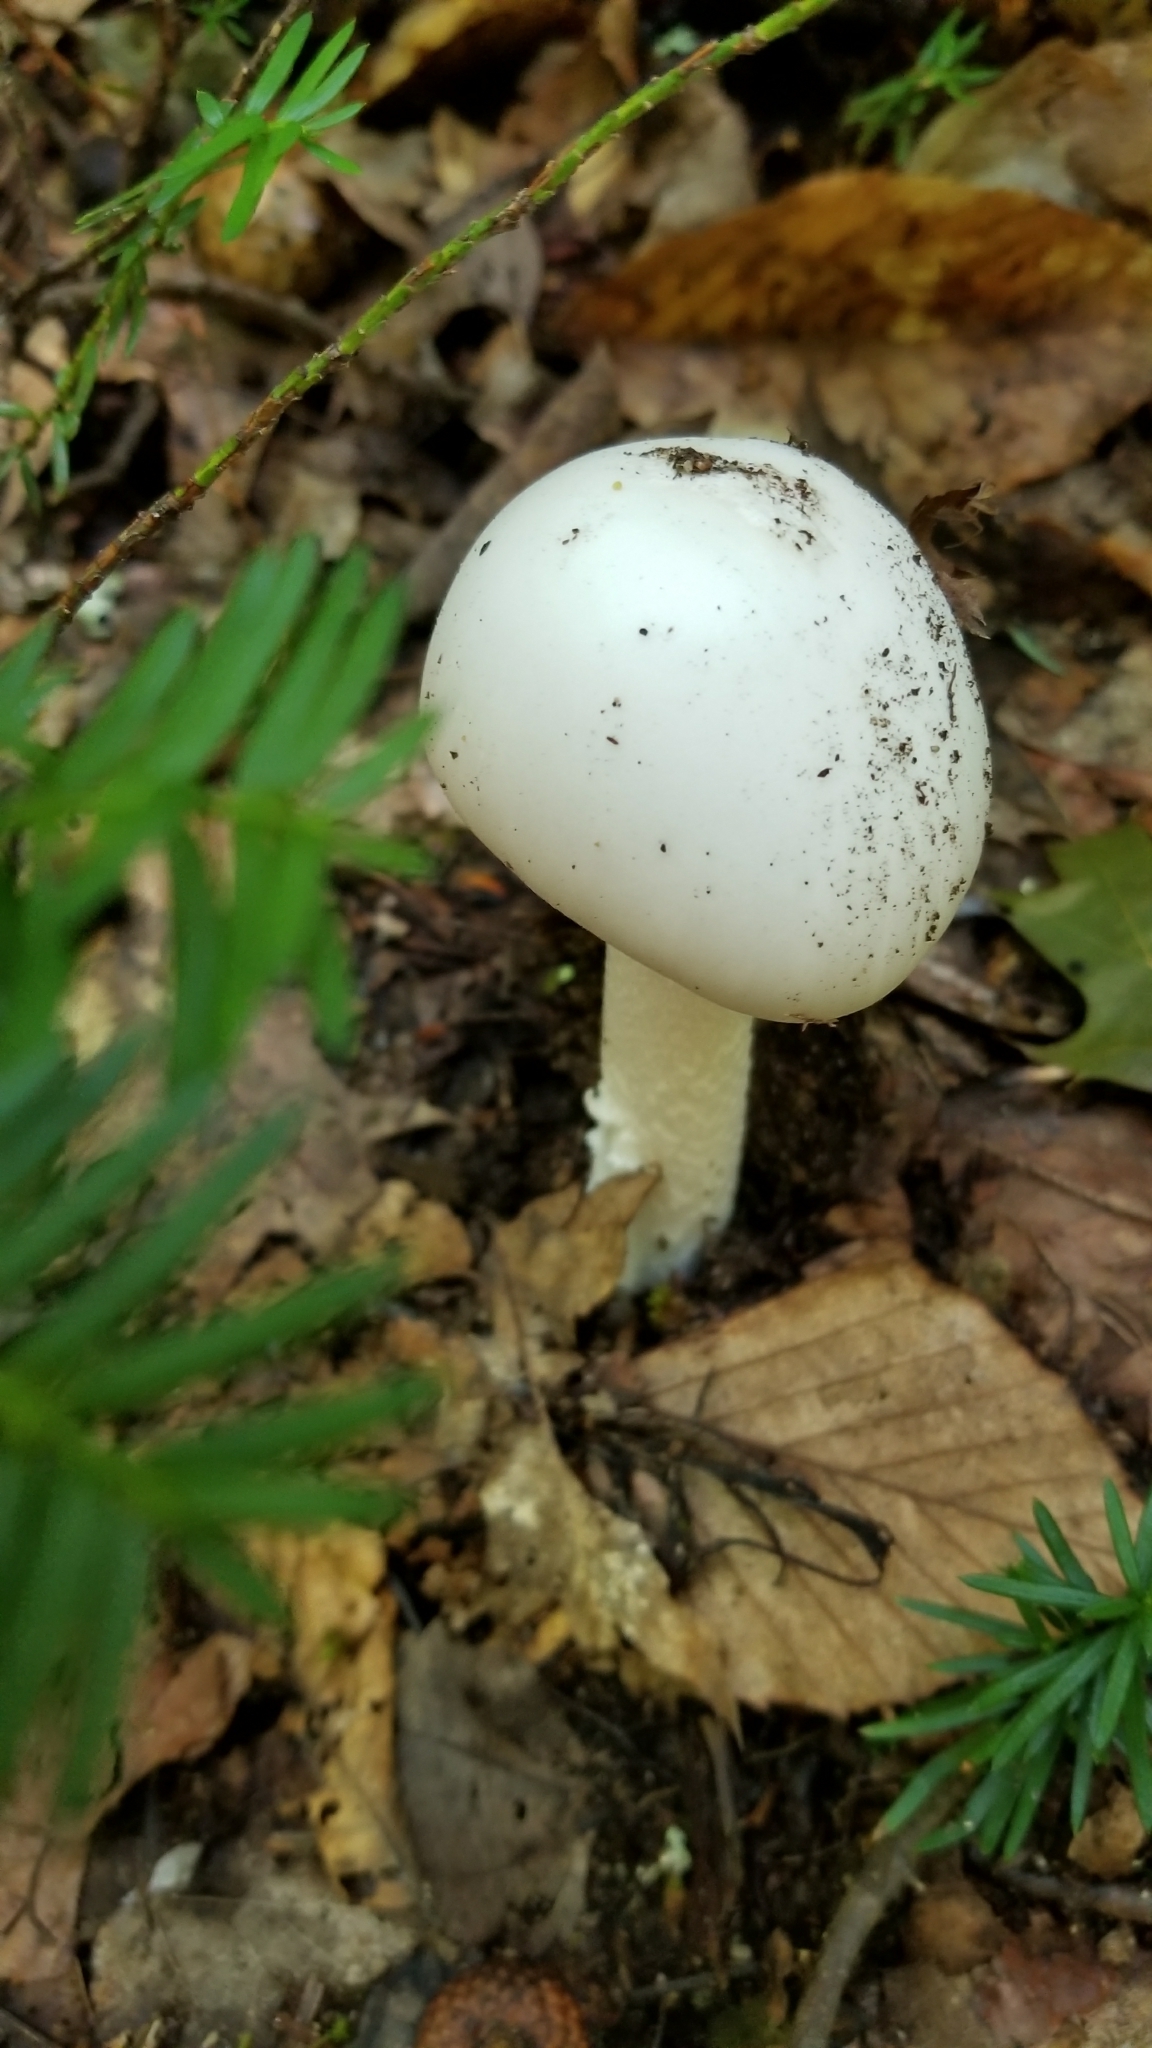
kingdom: Fungi
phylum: Basidiomycota
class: Agaricomycetes
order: Agaricales
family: Amanitaceae
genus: Amanita
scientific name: Amanita bisporigera
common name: Eastern north american destroying angel
